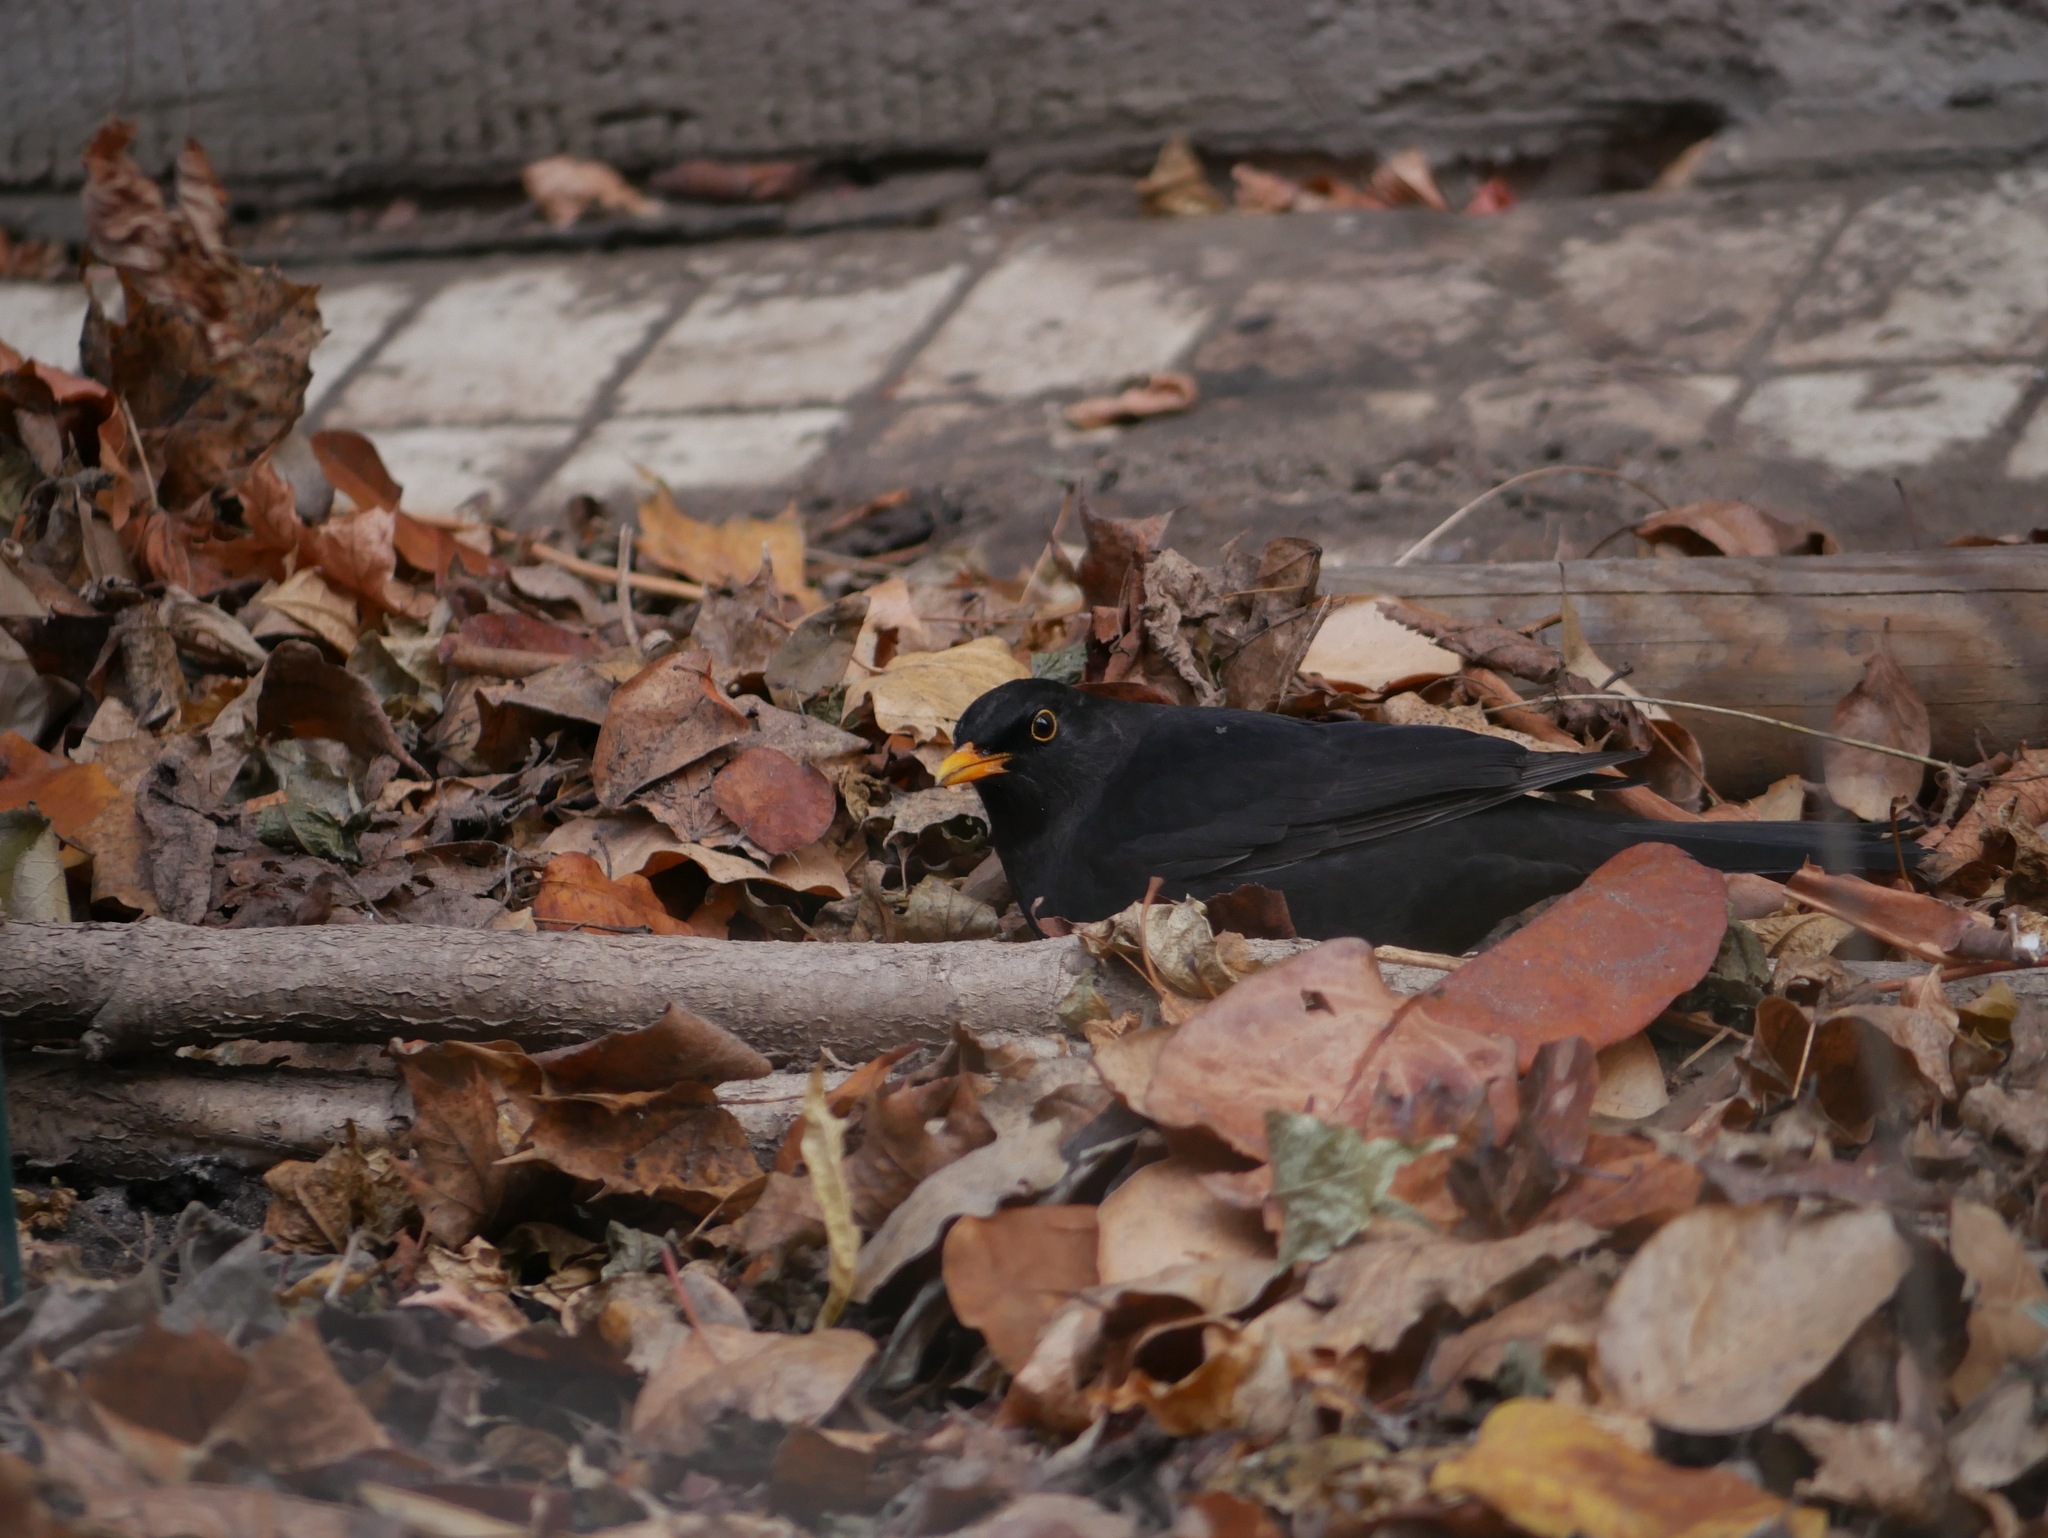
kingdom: Animalia
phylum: Chordata
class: Aves
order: Passeriformes
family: Turdidae
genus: Turdus
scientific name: Turdus merula
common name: Common blackbird
